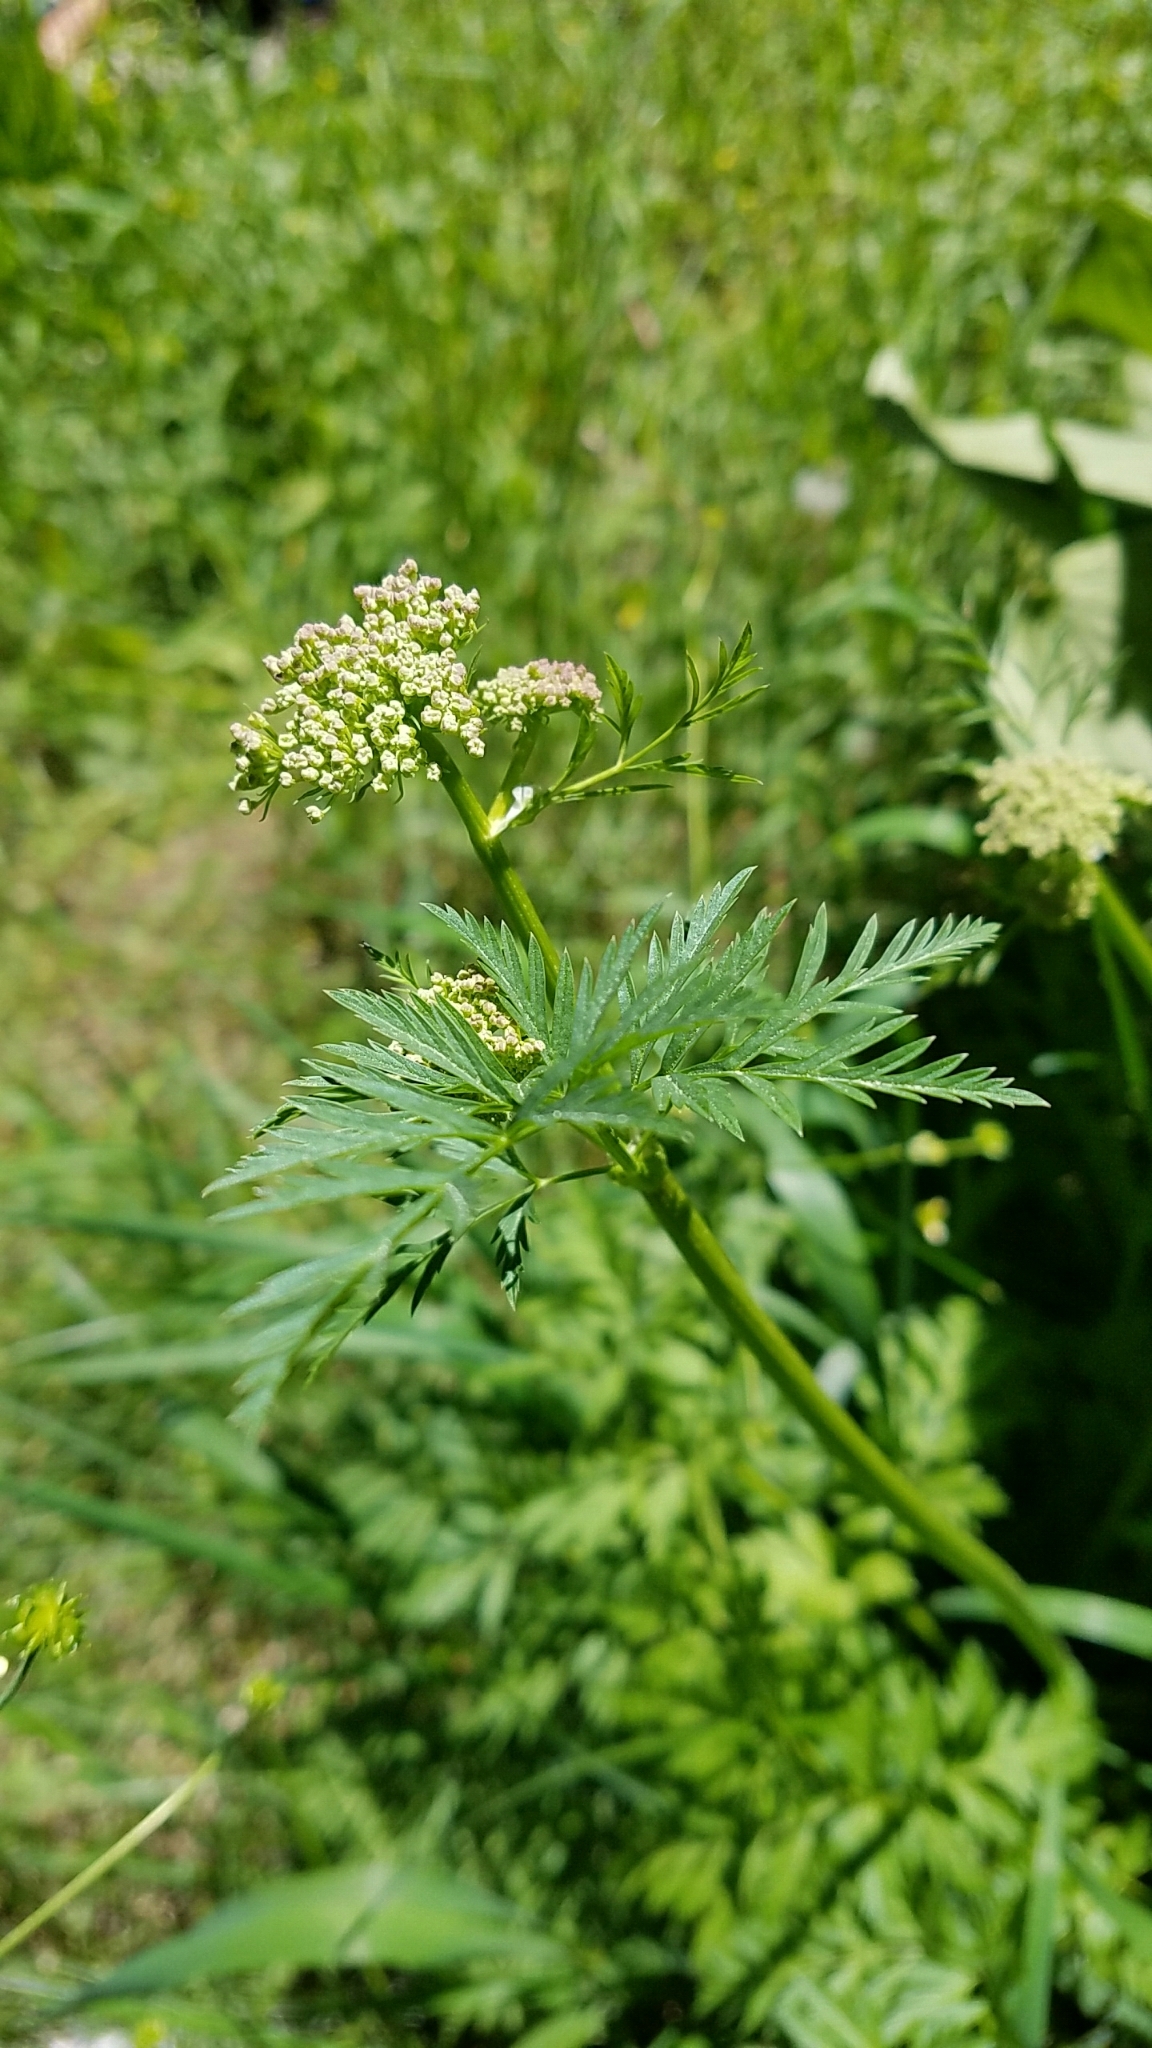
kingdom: Plantae
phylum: Tracheophyta
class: Magnoliopsida
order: Apiales
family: Apiaceae
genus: Ligusticum
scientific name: Ligusticum grayi
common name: Gray's licorice-root
